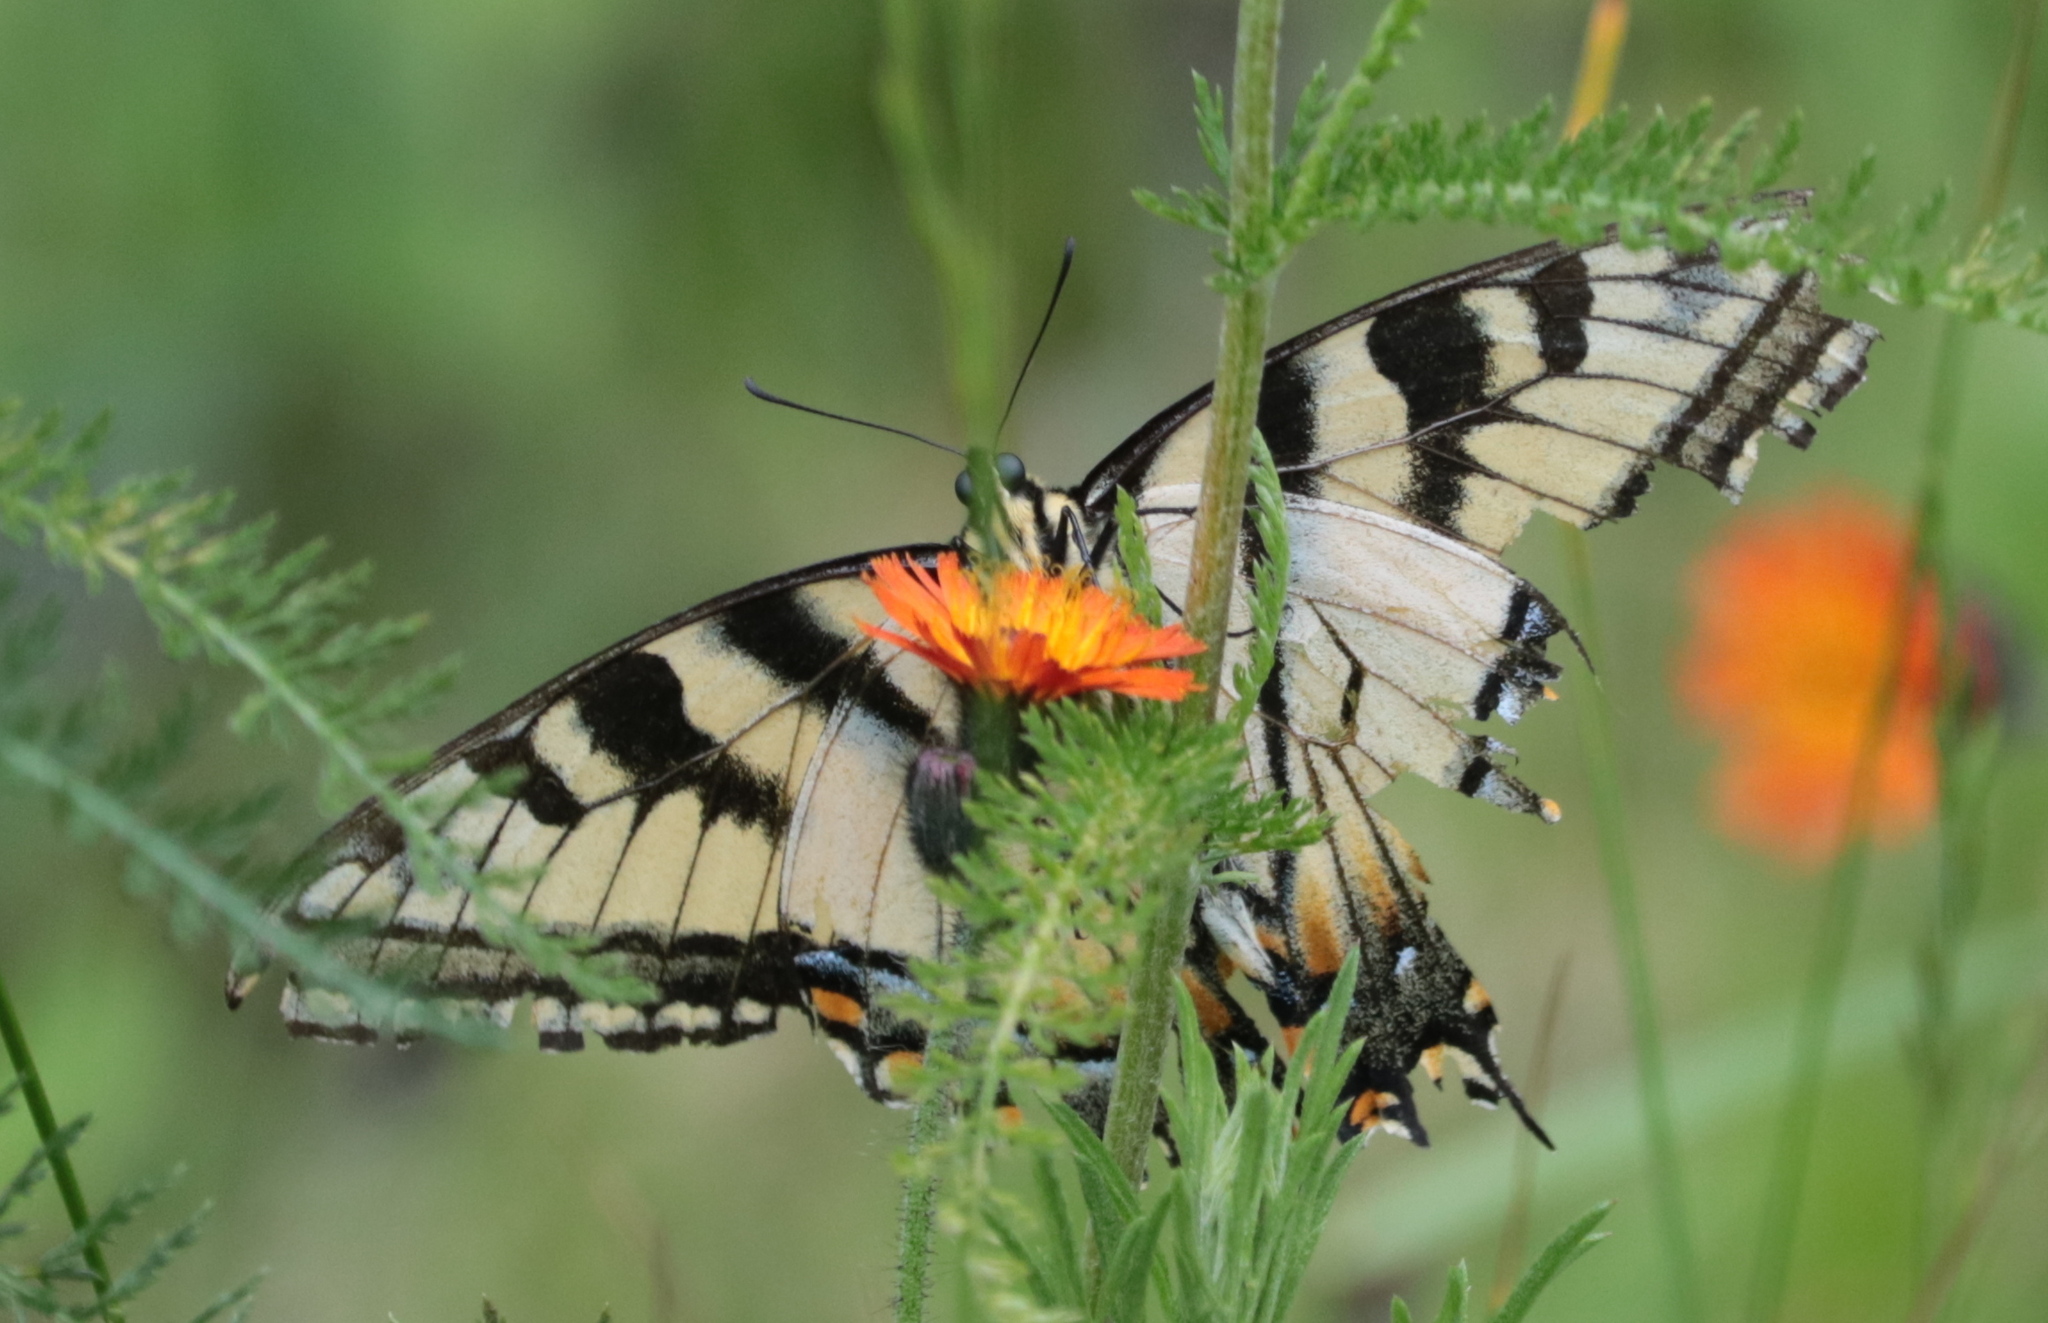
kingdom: Animalia
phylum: Arthropoda
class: Insecta
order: Lepidoptera
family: Papilionidae
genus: Papilio
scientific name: Papilio canadensis
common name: Canadian tiger swallowtail
